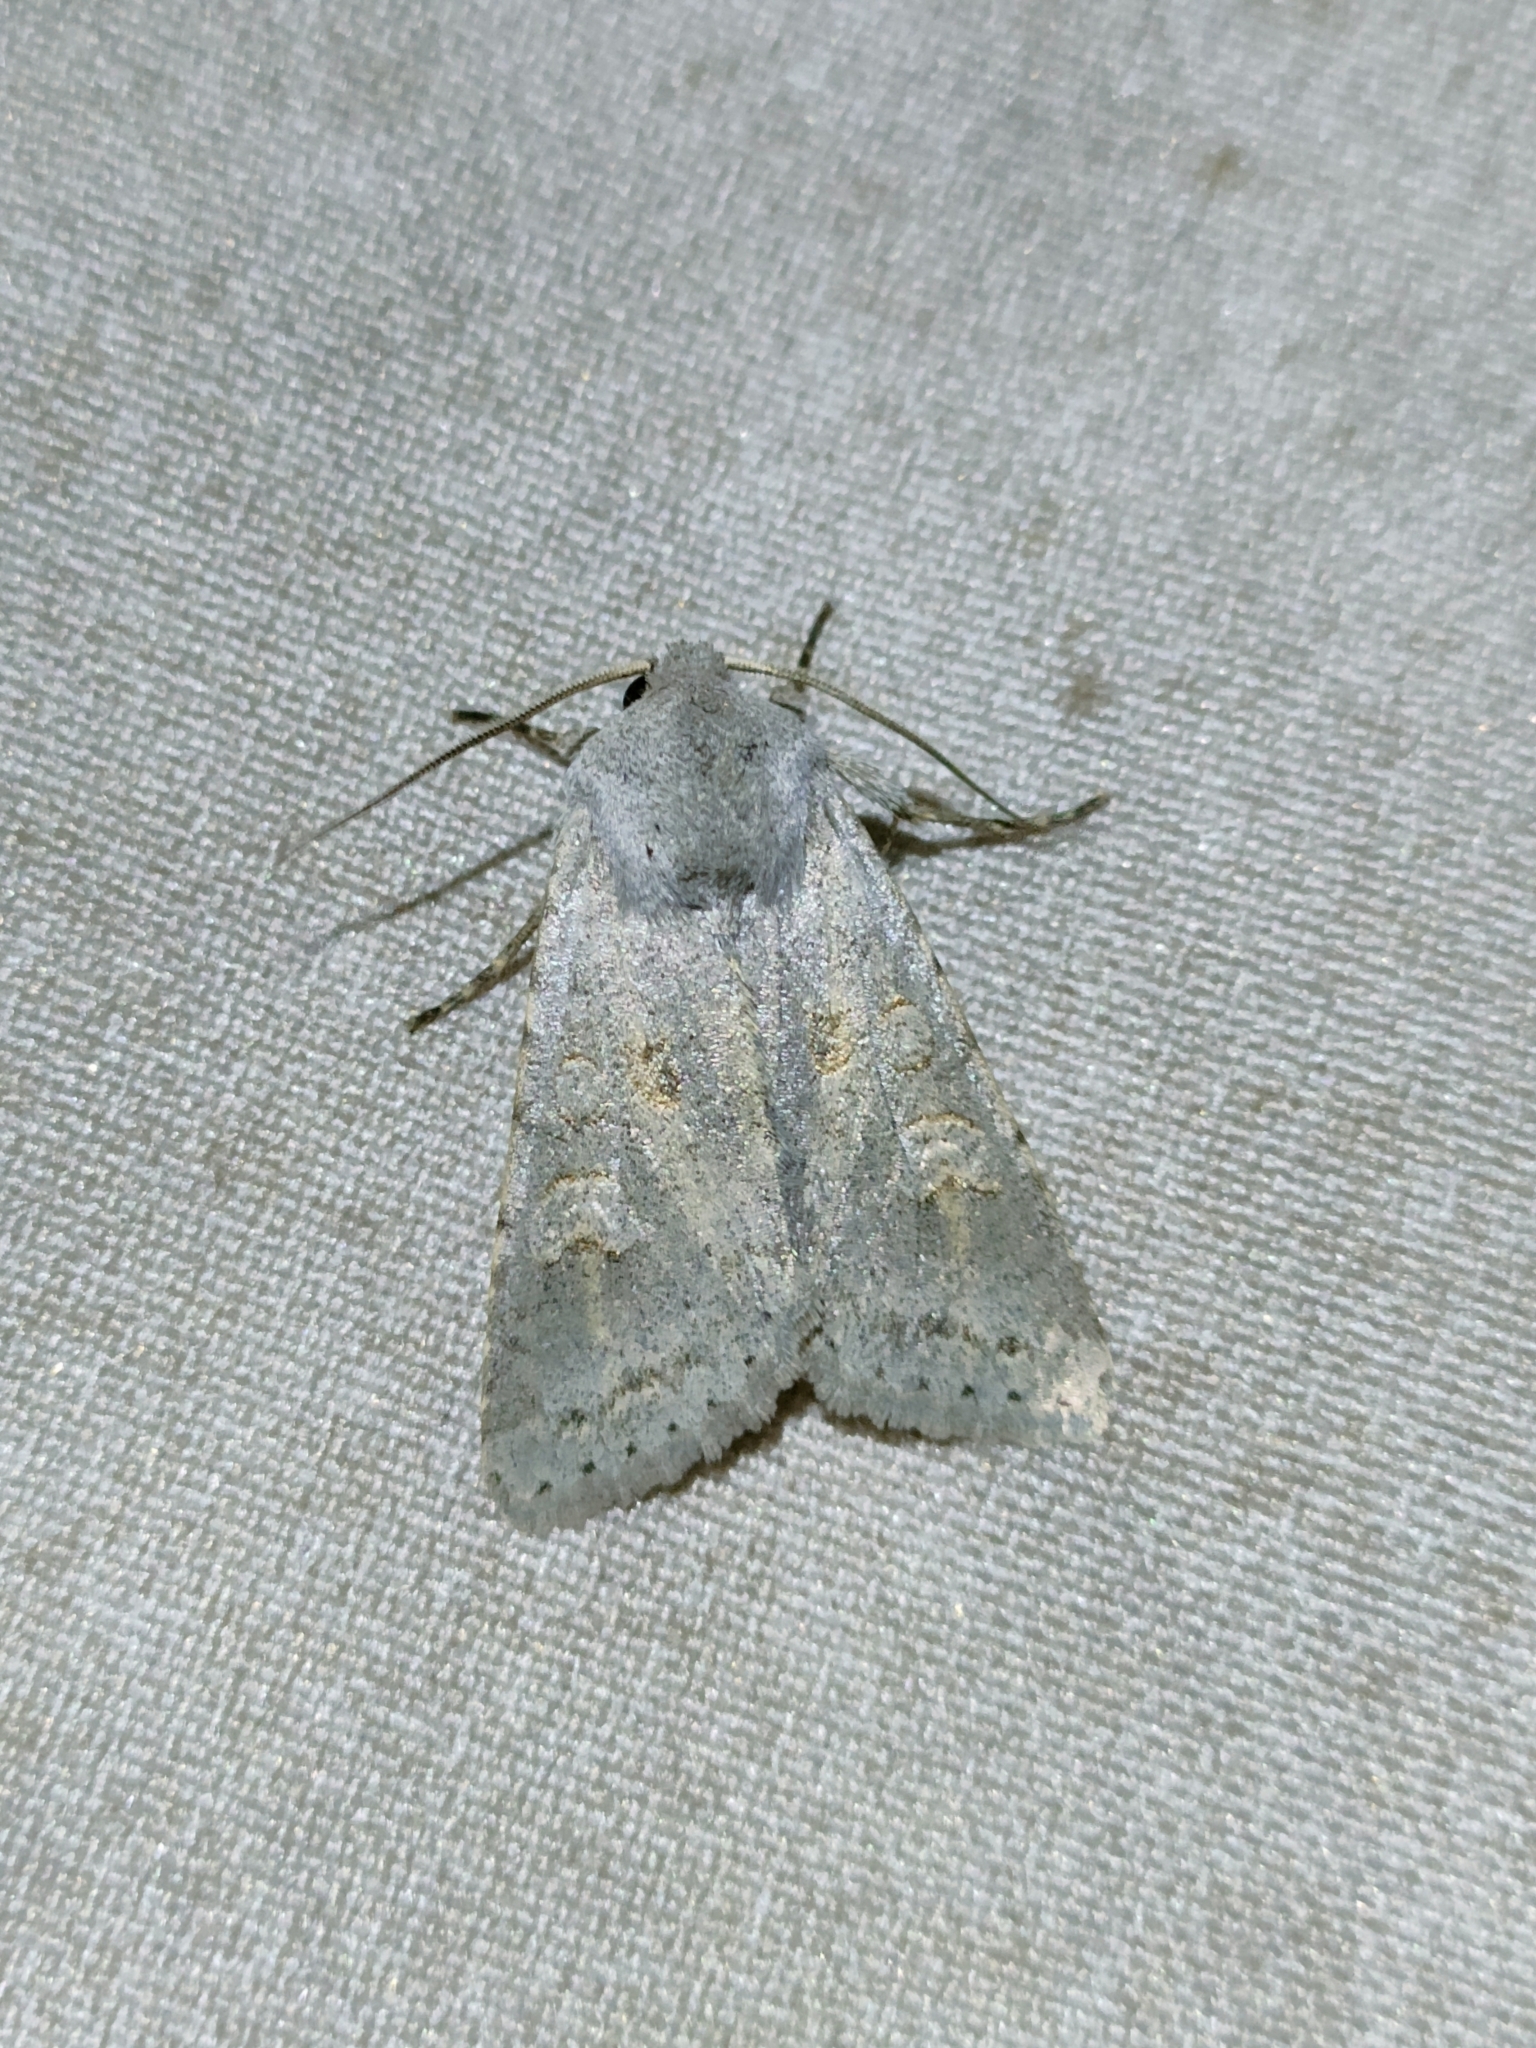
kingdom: Animalia
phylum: Arthropoda
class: Insecta
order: Lepidoptera
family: Noctuidae
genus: Ammoconia
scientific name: Ammoconia senex
